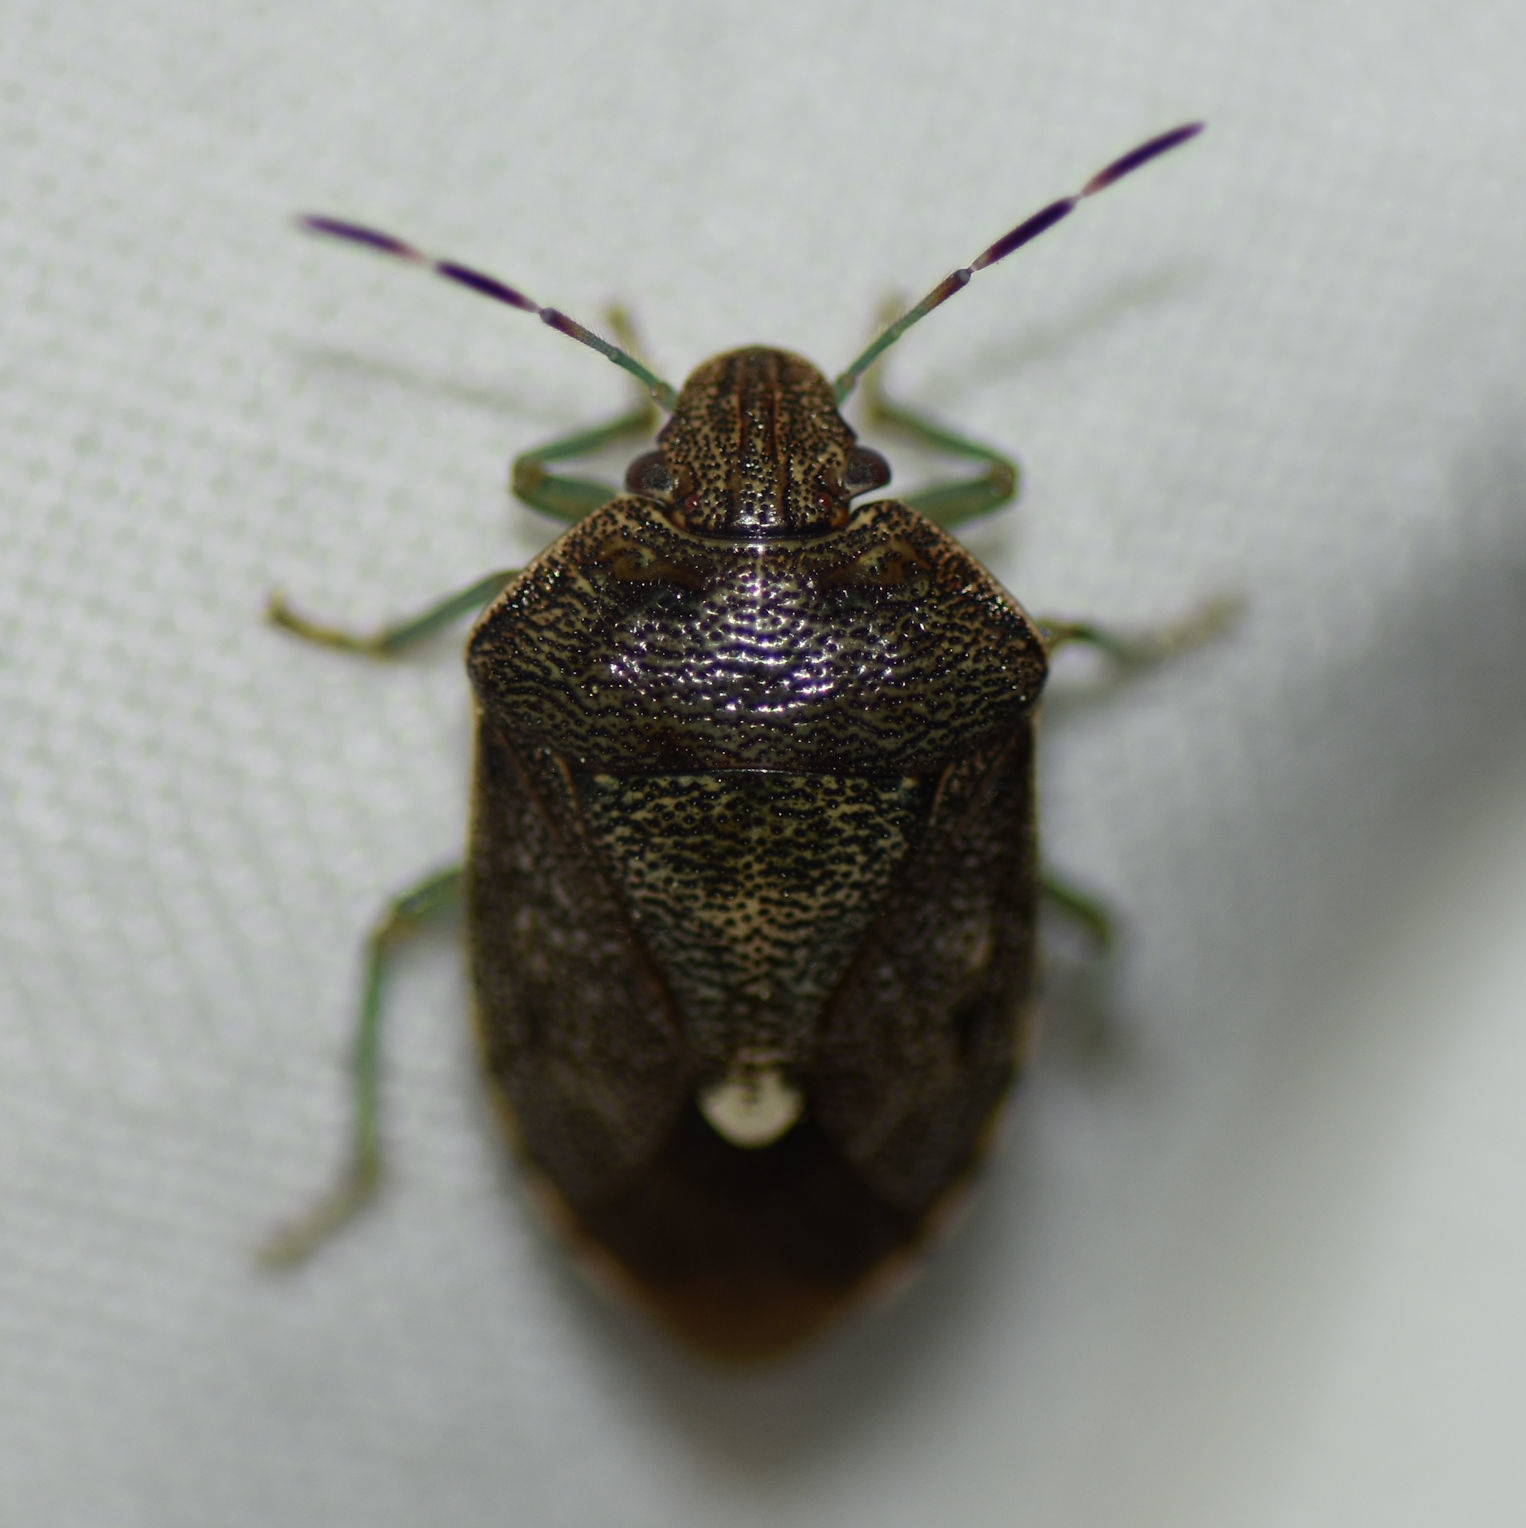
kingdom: Animalia
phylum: Arthropoda
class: Insecta
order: Hemiptera
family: Pentatomidae
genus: Banasa
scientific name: Banasa sordida
